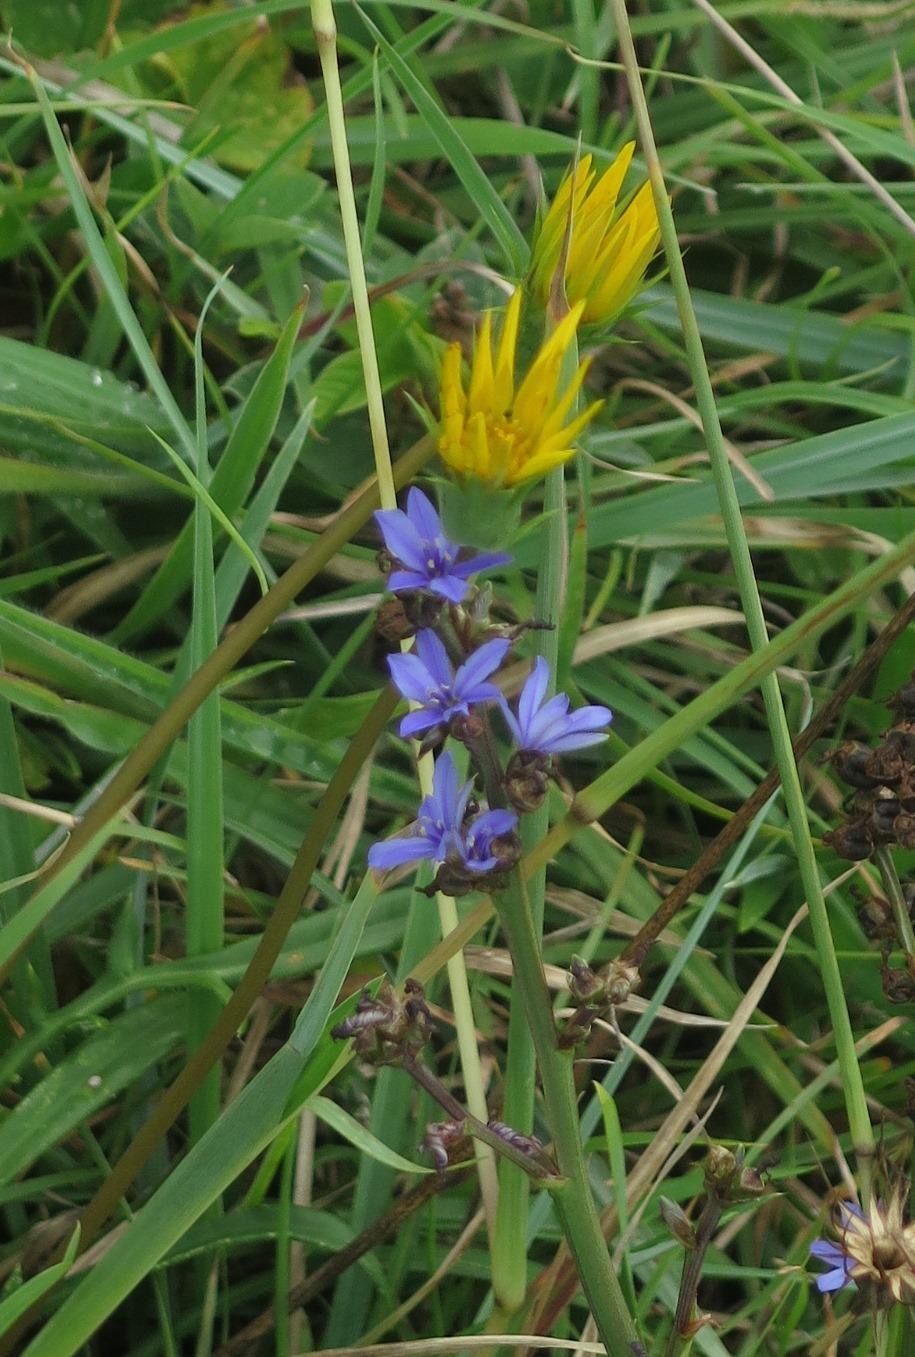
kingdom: Plantae
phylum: Tracheophyta
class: Liliopsida
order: Asparagales
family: Iridaceae
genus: Aristea
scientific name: Aristea ecklonii
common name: Blue corn-lily
